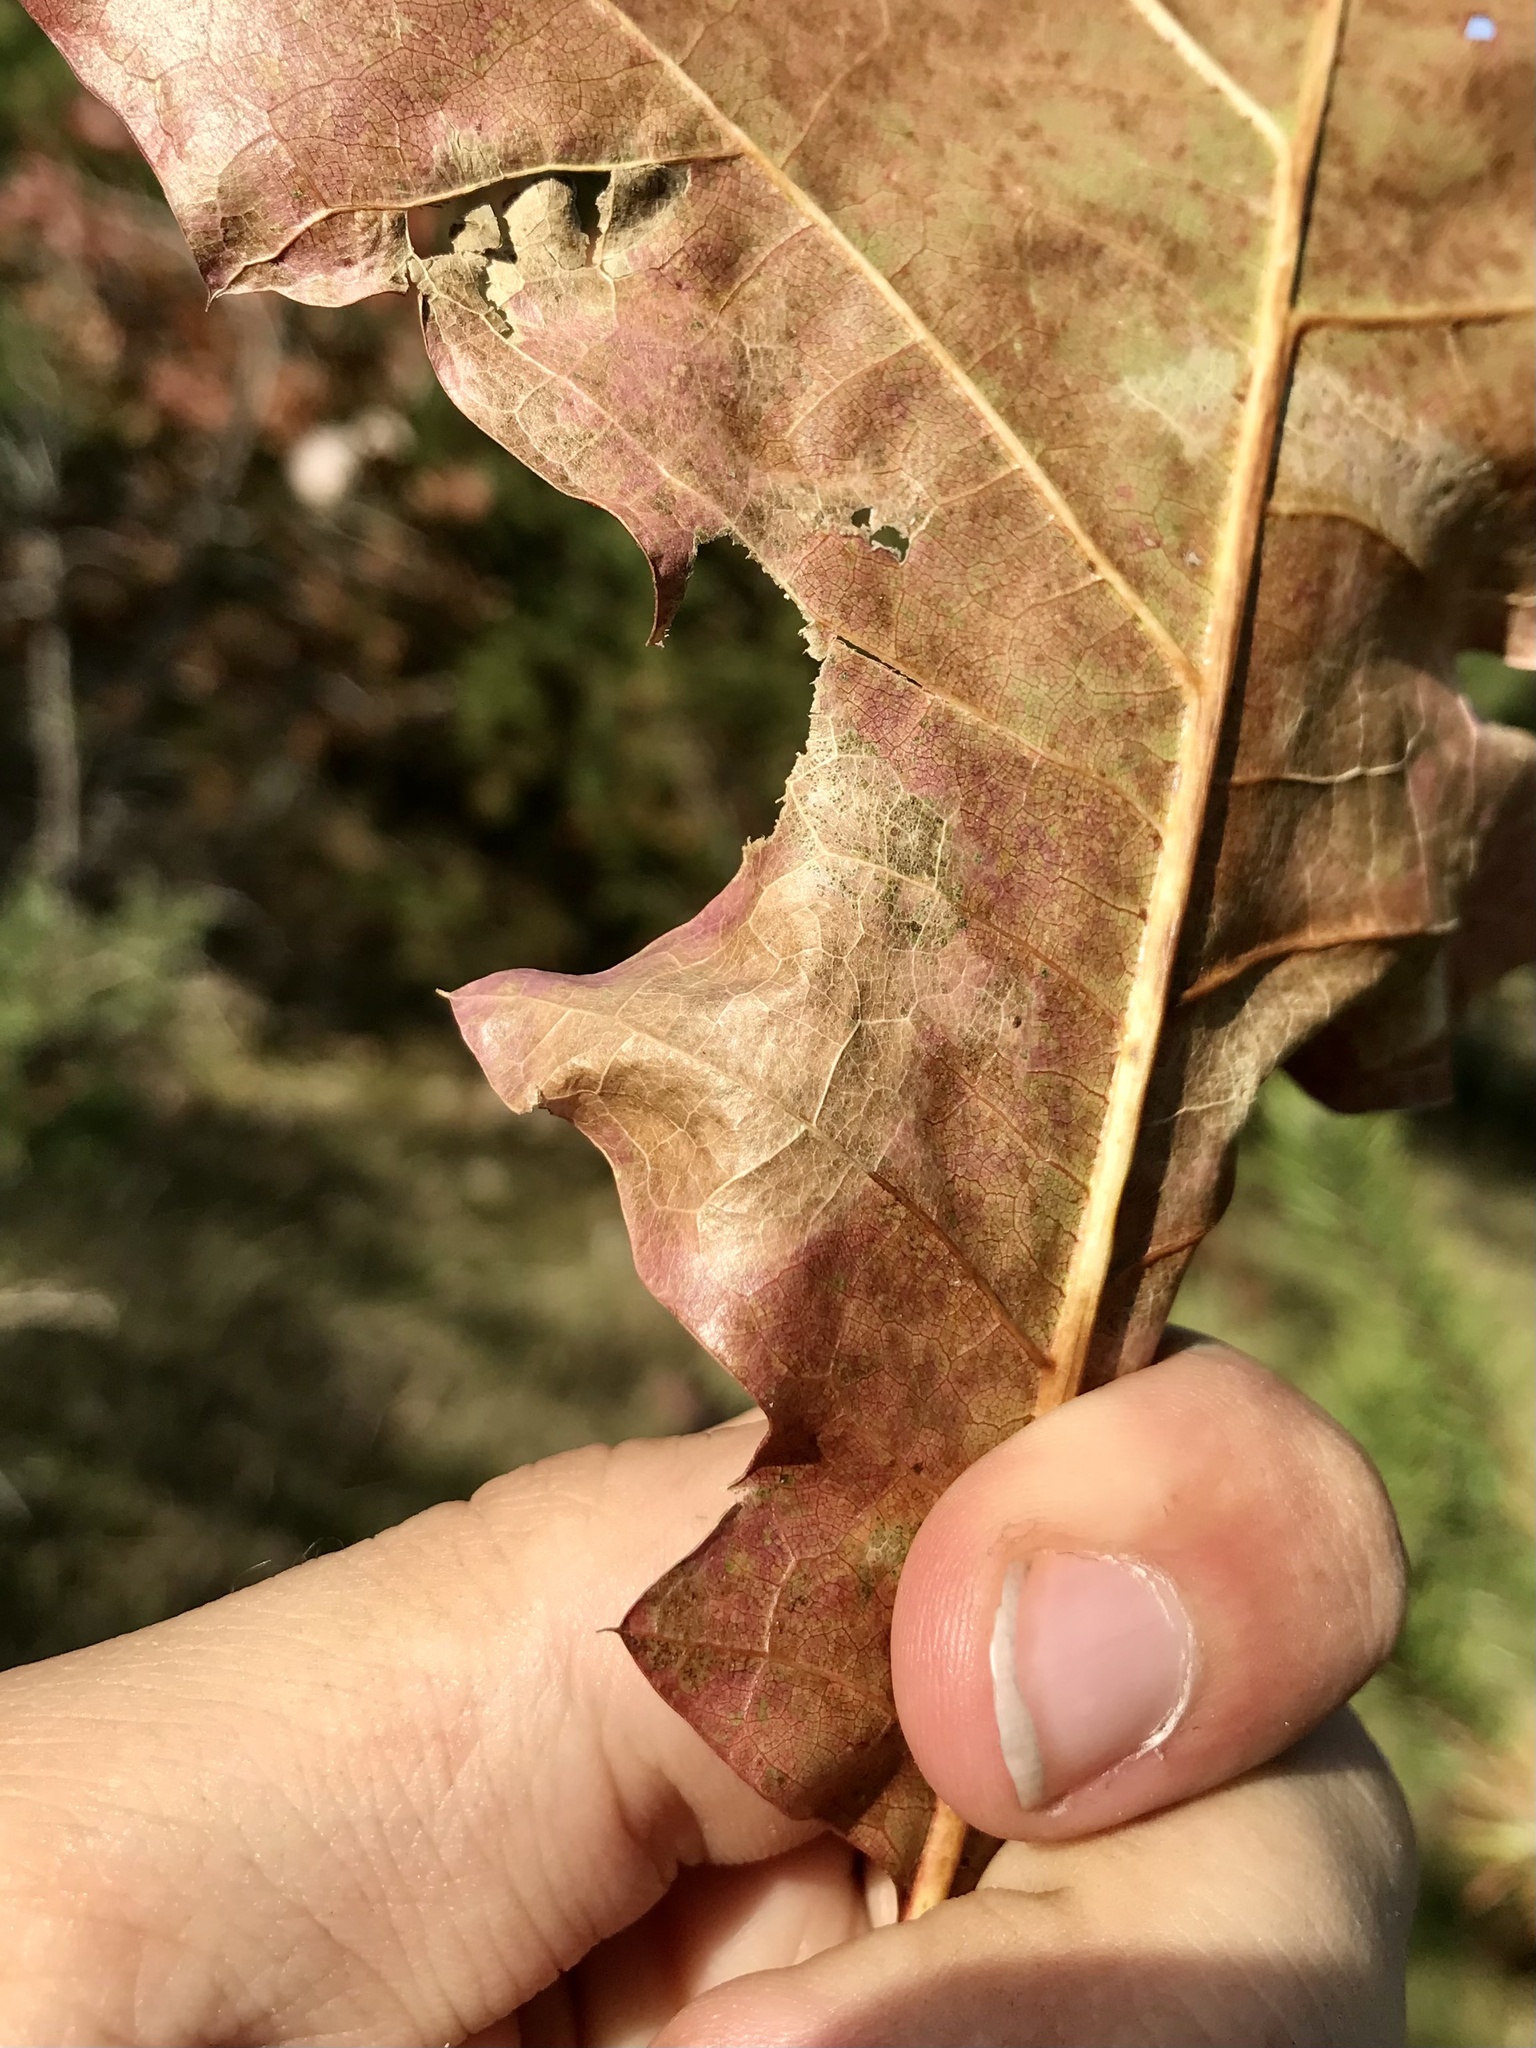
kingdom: Animalia
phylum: Arthropoda
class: Insecta
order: Lepidoptera
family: Gracillariidae
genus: Cameraria
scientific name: Cameraria
